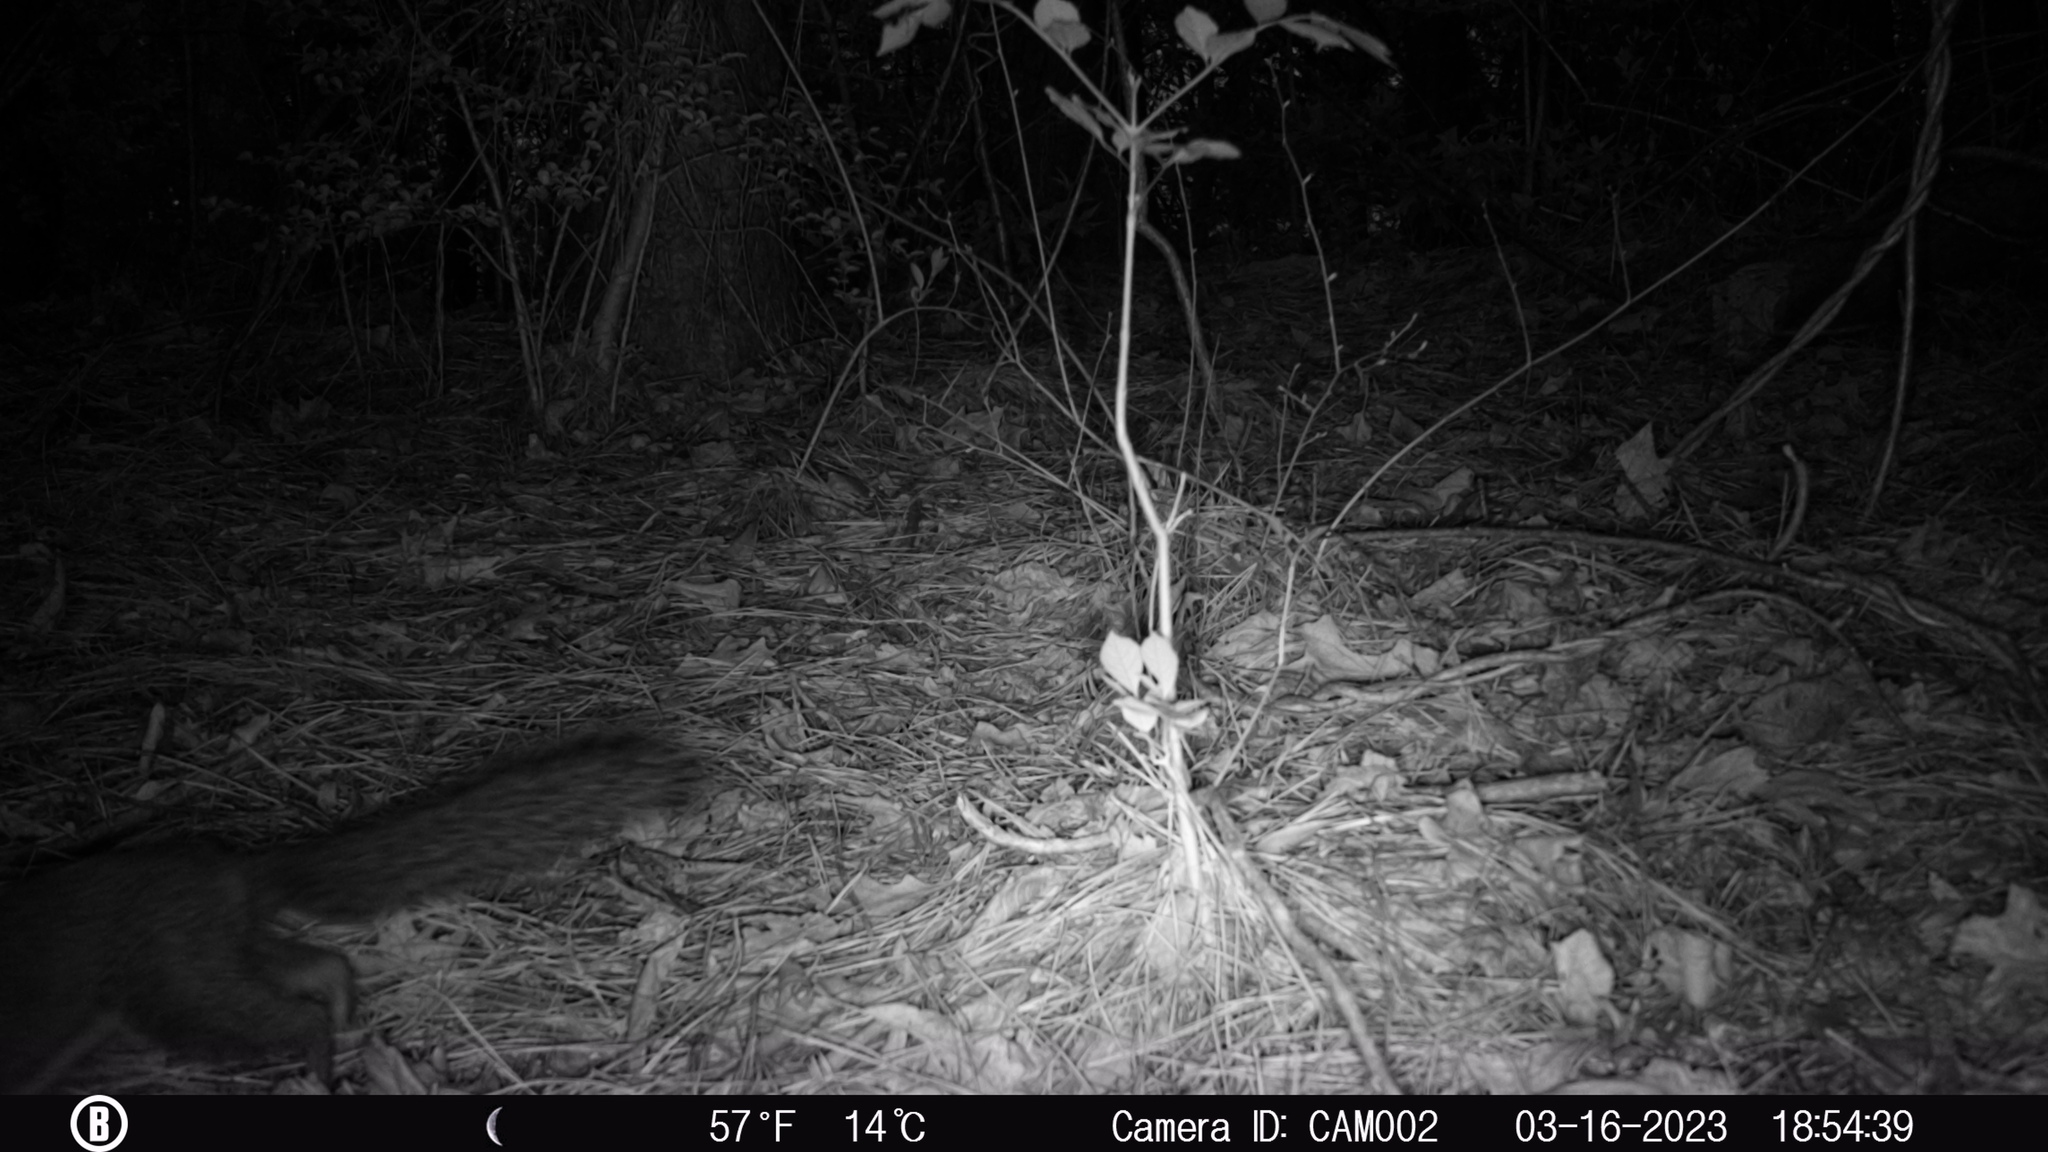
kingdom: Animalia
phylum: Chordata
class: Mammalia
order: Rodentia
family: Sciuridae
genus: Sciurus
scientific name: Sciurus carolinensis
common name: Eastern gray squirrel
